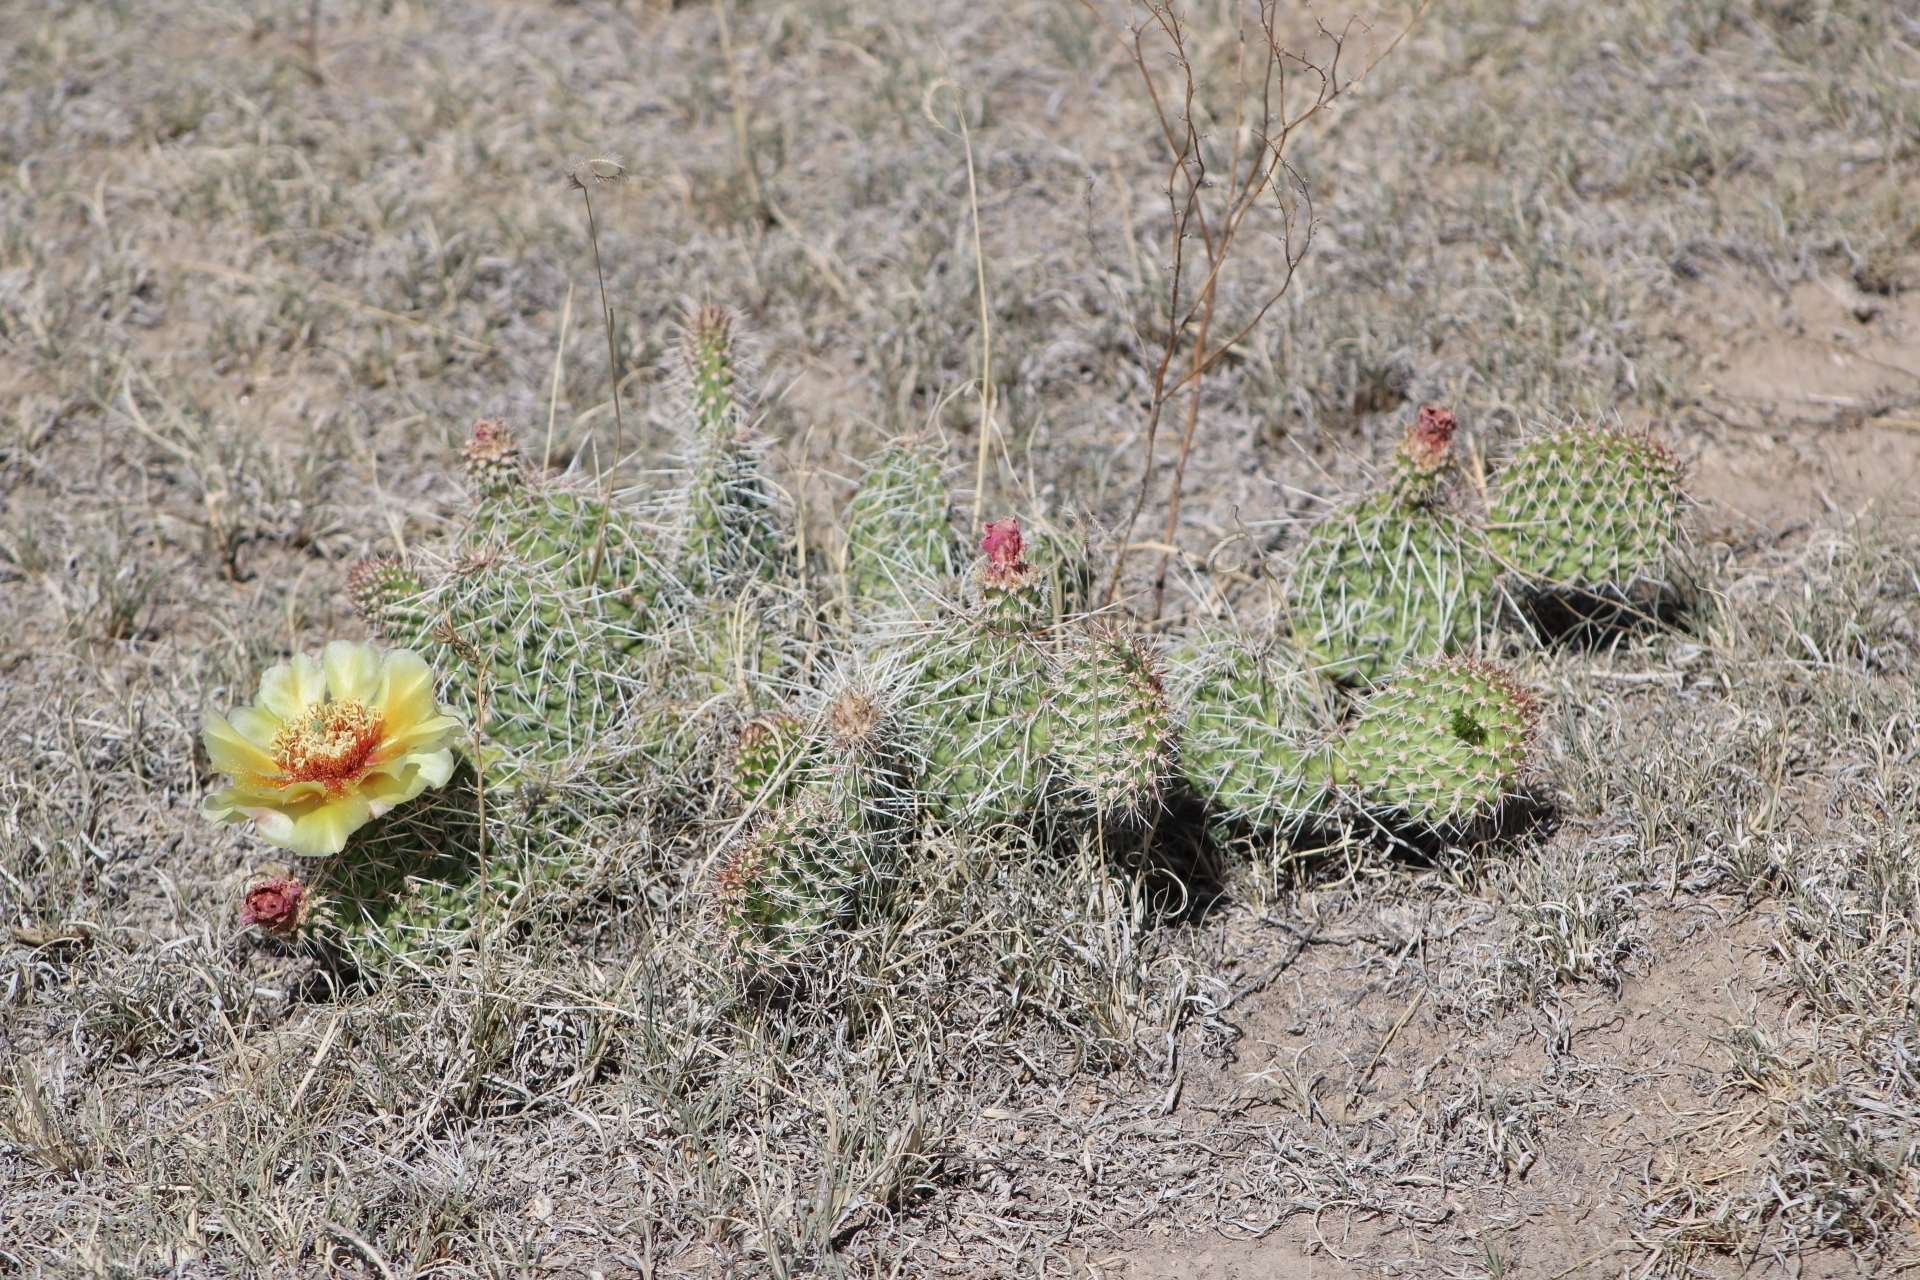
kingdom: Plantae
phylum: Tracheophyta
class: Magnoliopsida
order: Caryophyllales
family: Cactaceae
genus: Opuntia
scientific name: Opuntia polyacantha
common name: Plains prickly-pear
